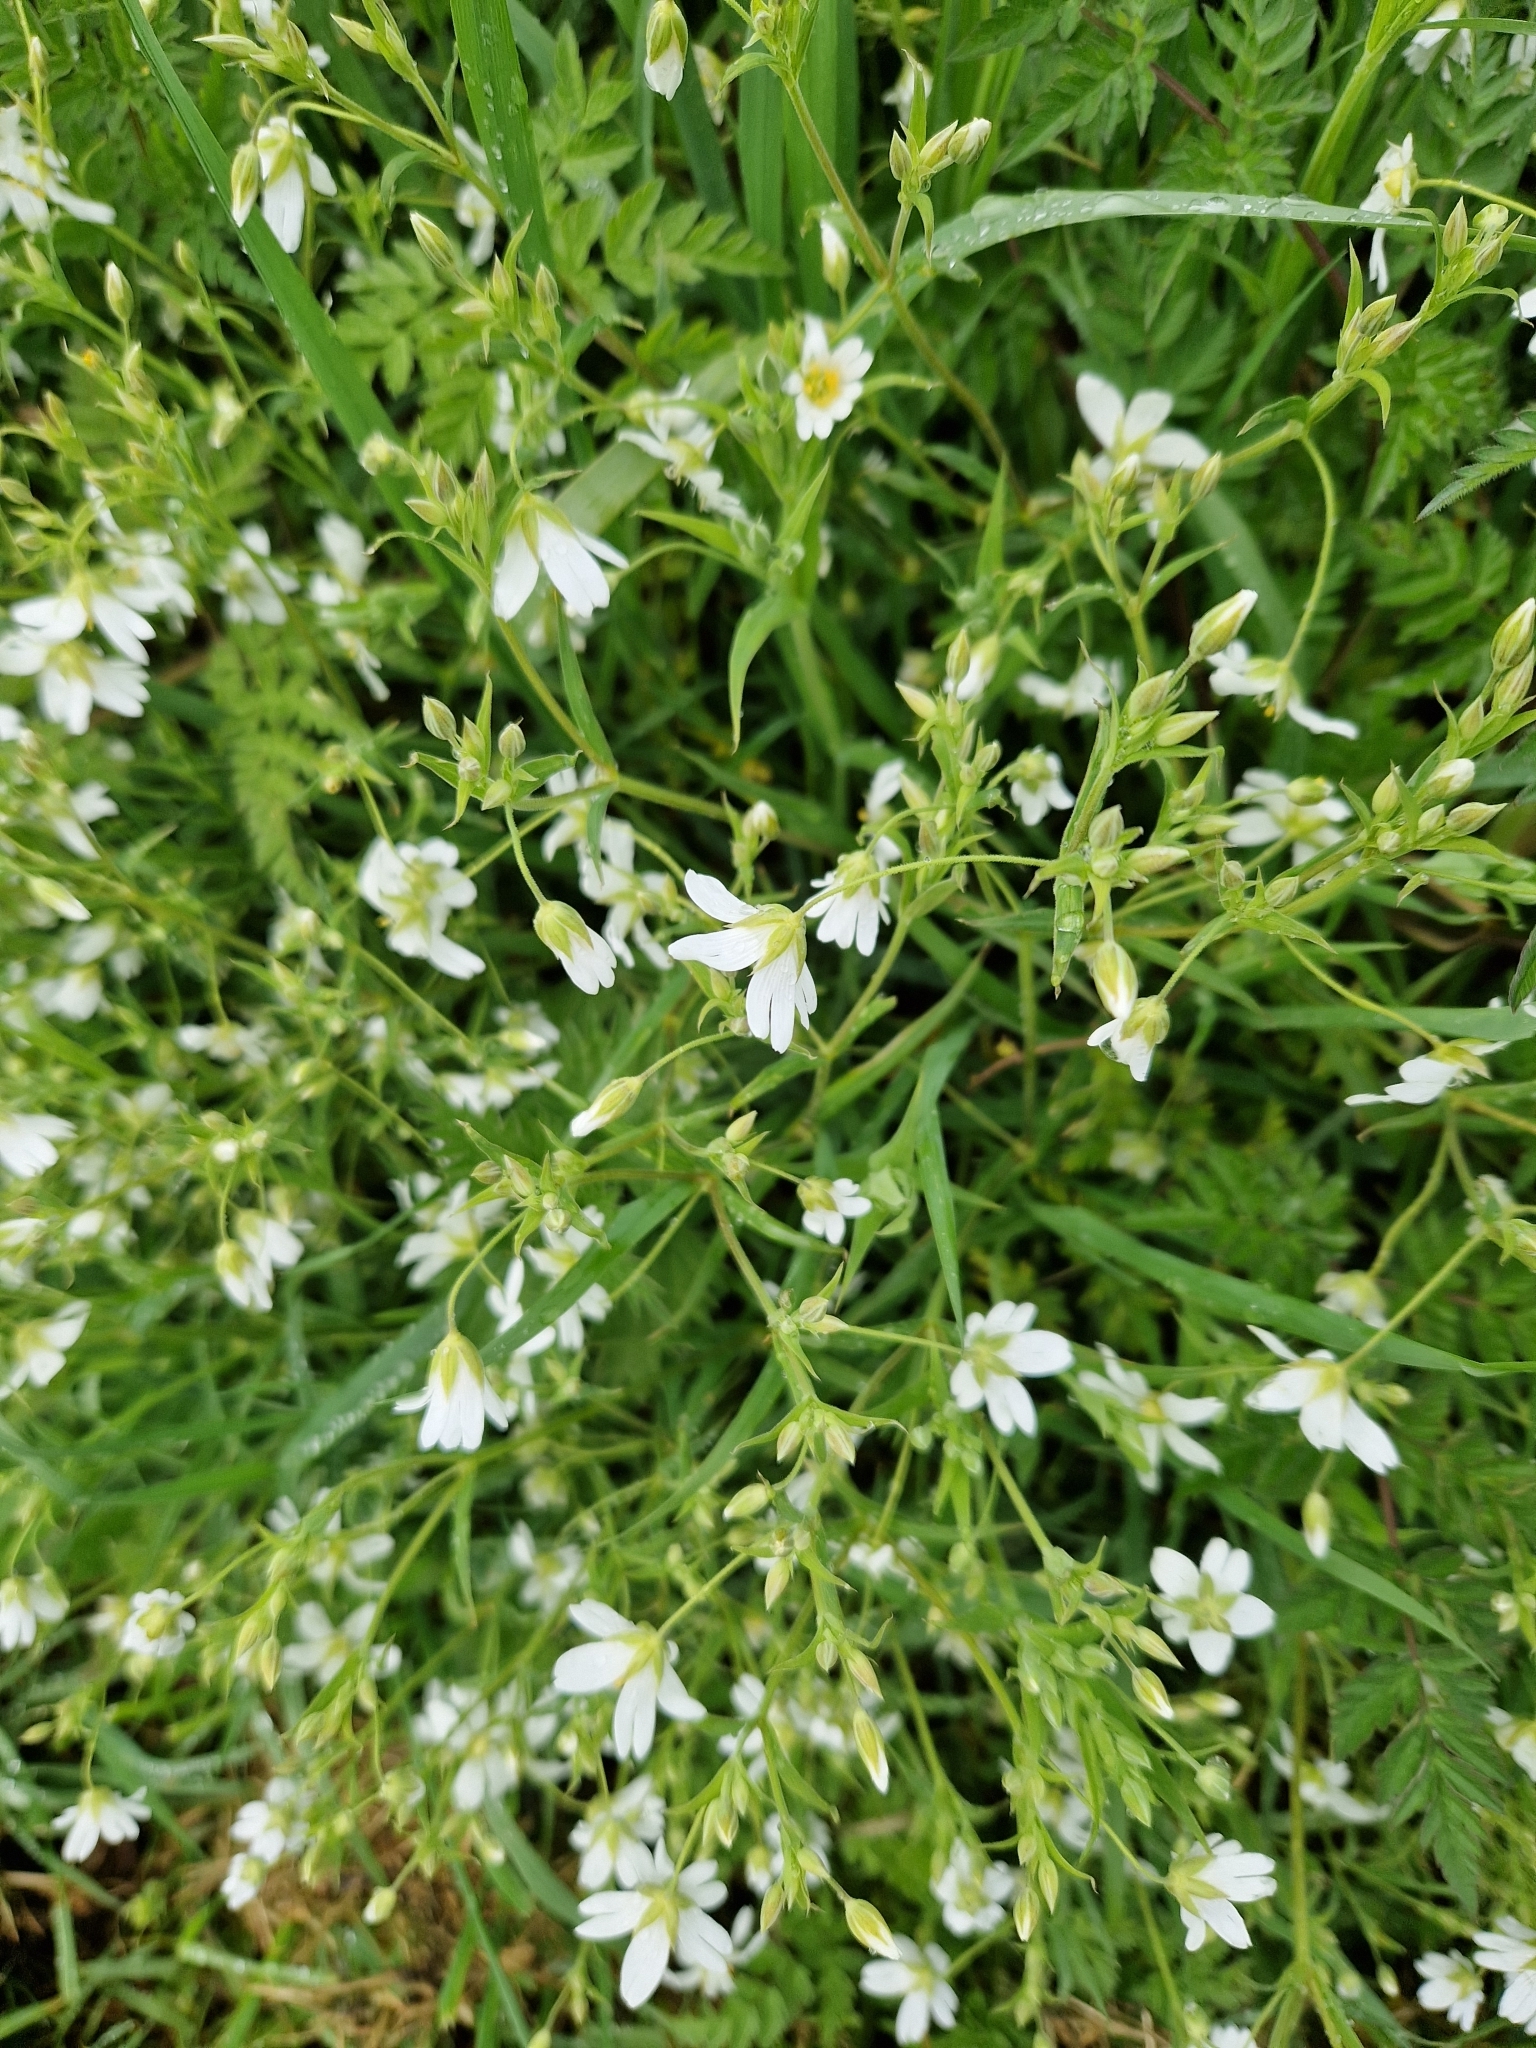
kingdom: Plantae
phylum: Tracheophyta
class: Magnoliopsida
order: Caryophyllales
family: Caryophyllaceae
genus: Rabelera
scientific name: Rabelera holostea
